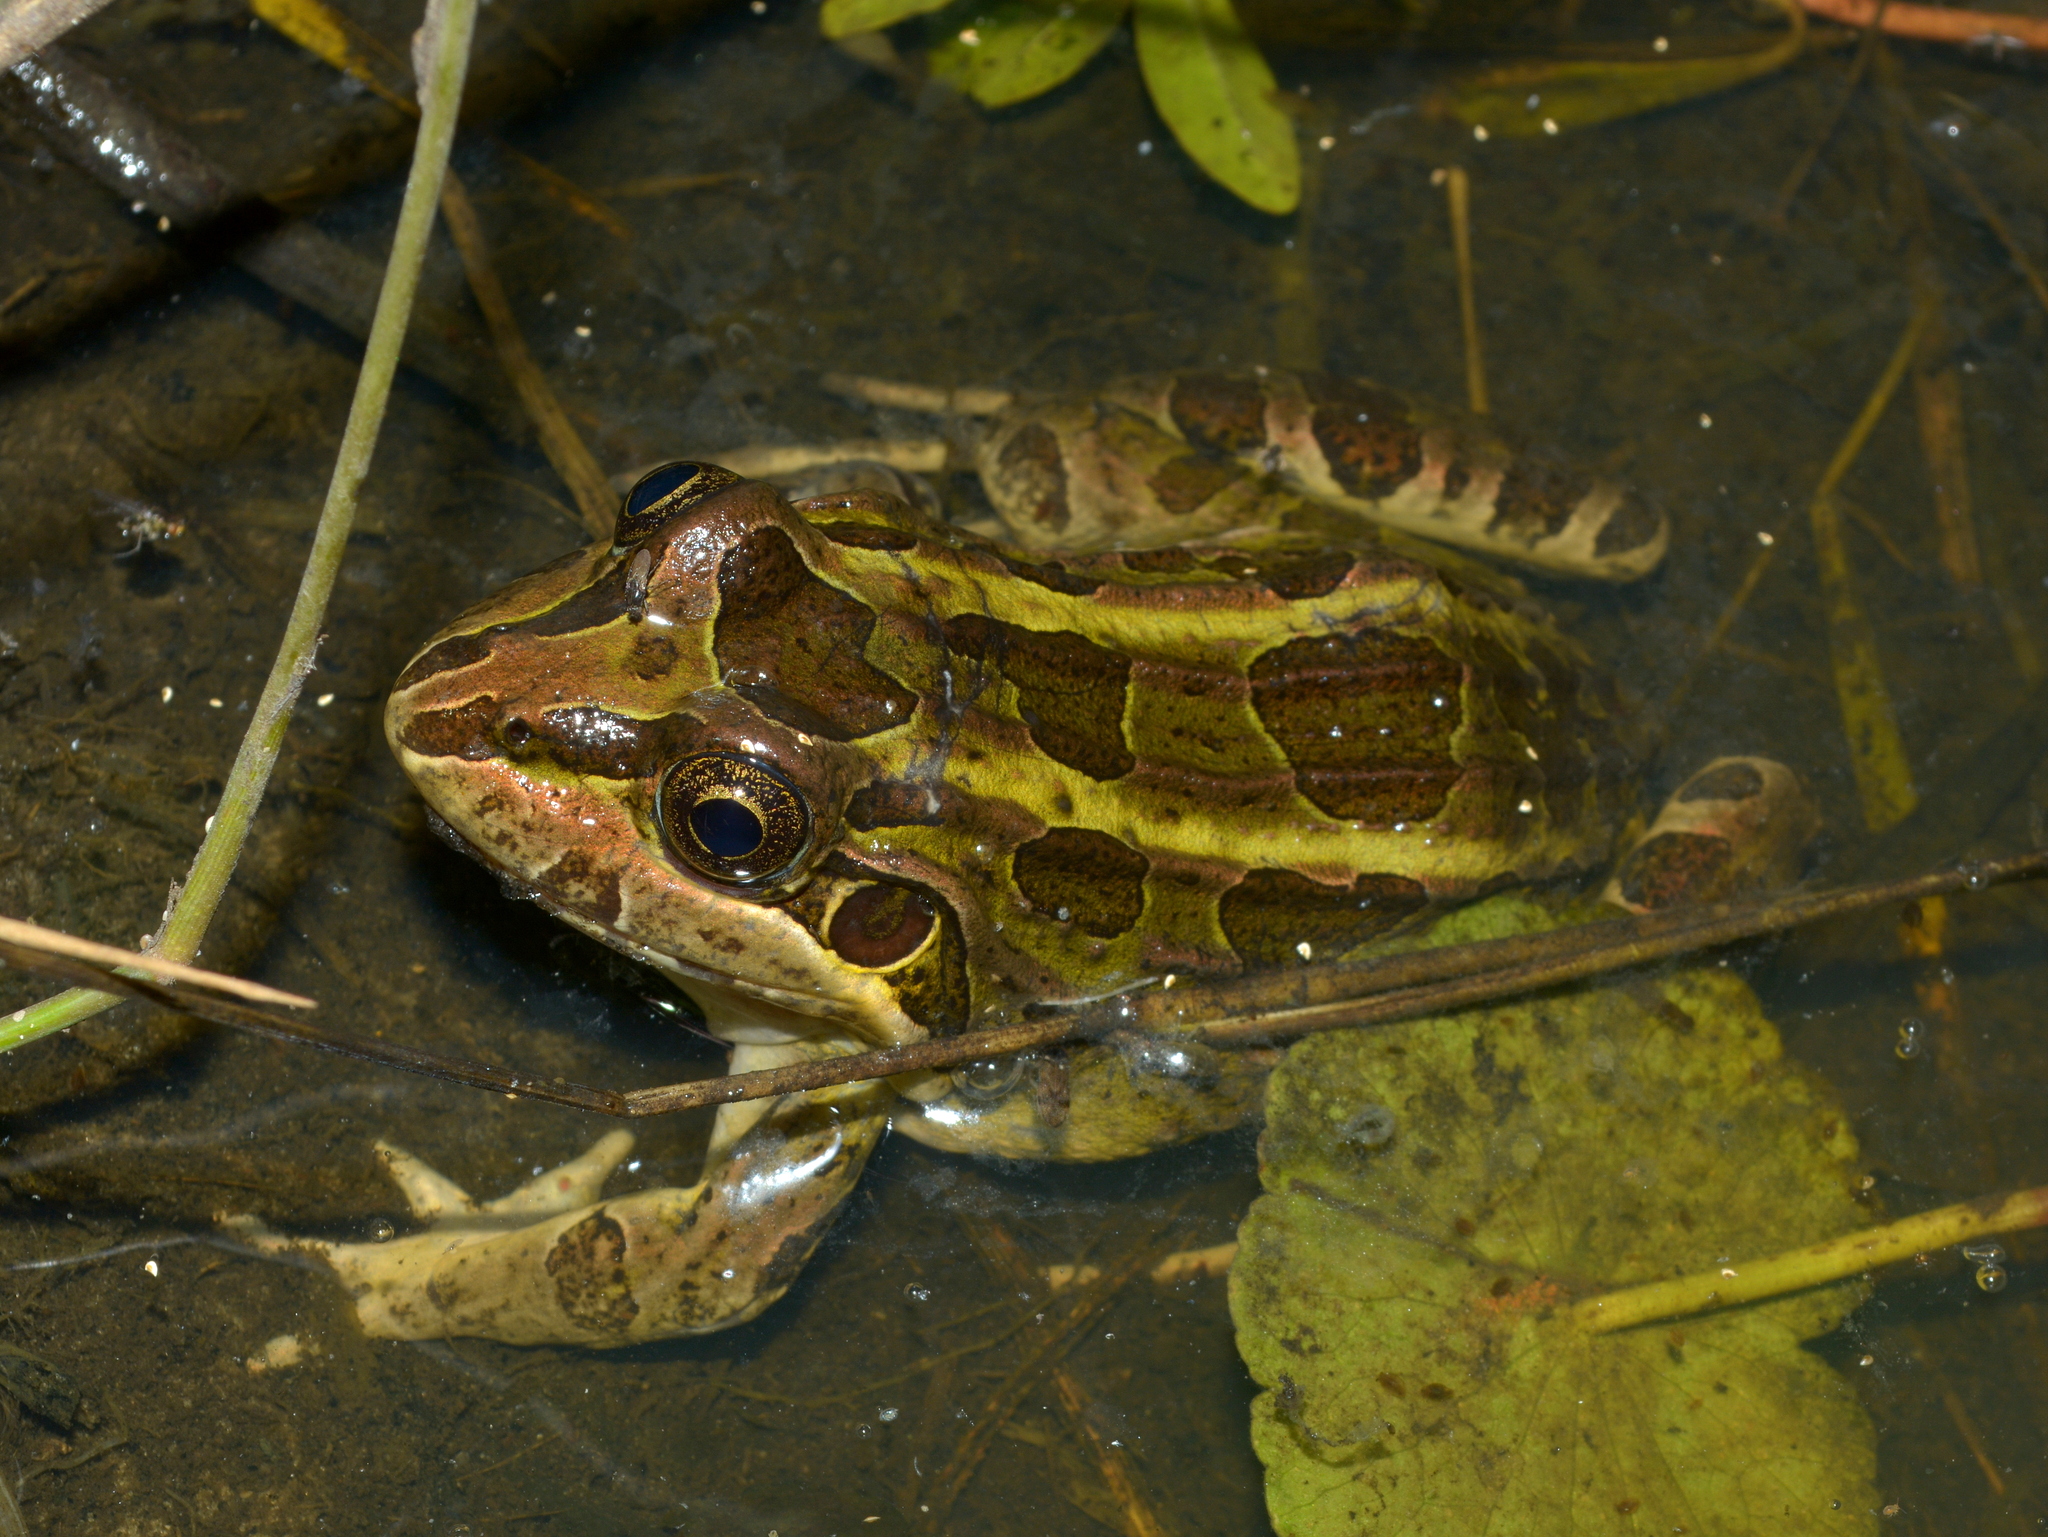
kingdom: Animalia
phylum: Chordata
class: Amphibia
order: Anura
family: Leptodactylidae
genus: Leptodactylus
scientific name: Leptodactylus luctator
